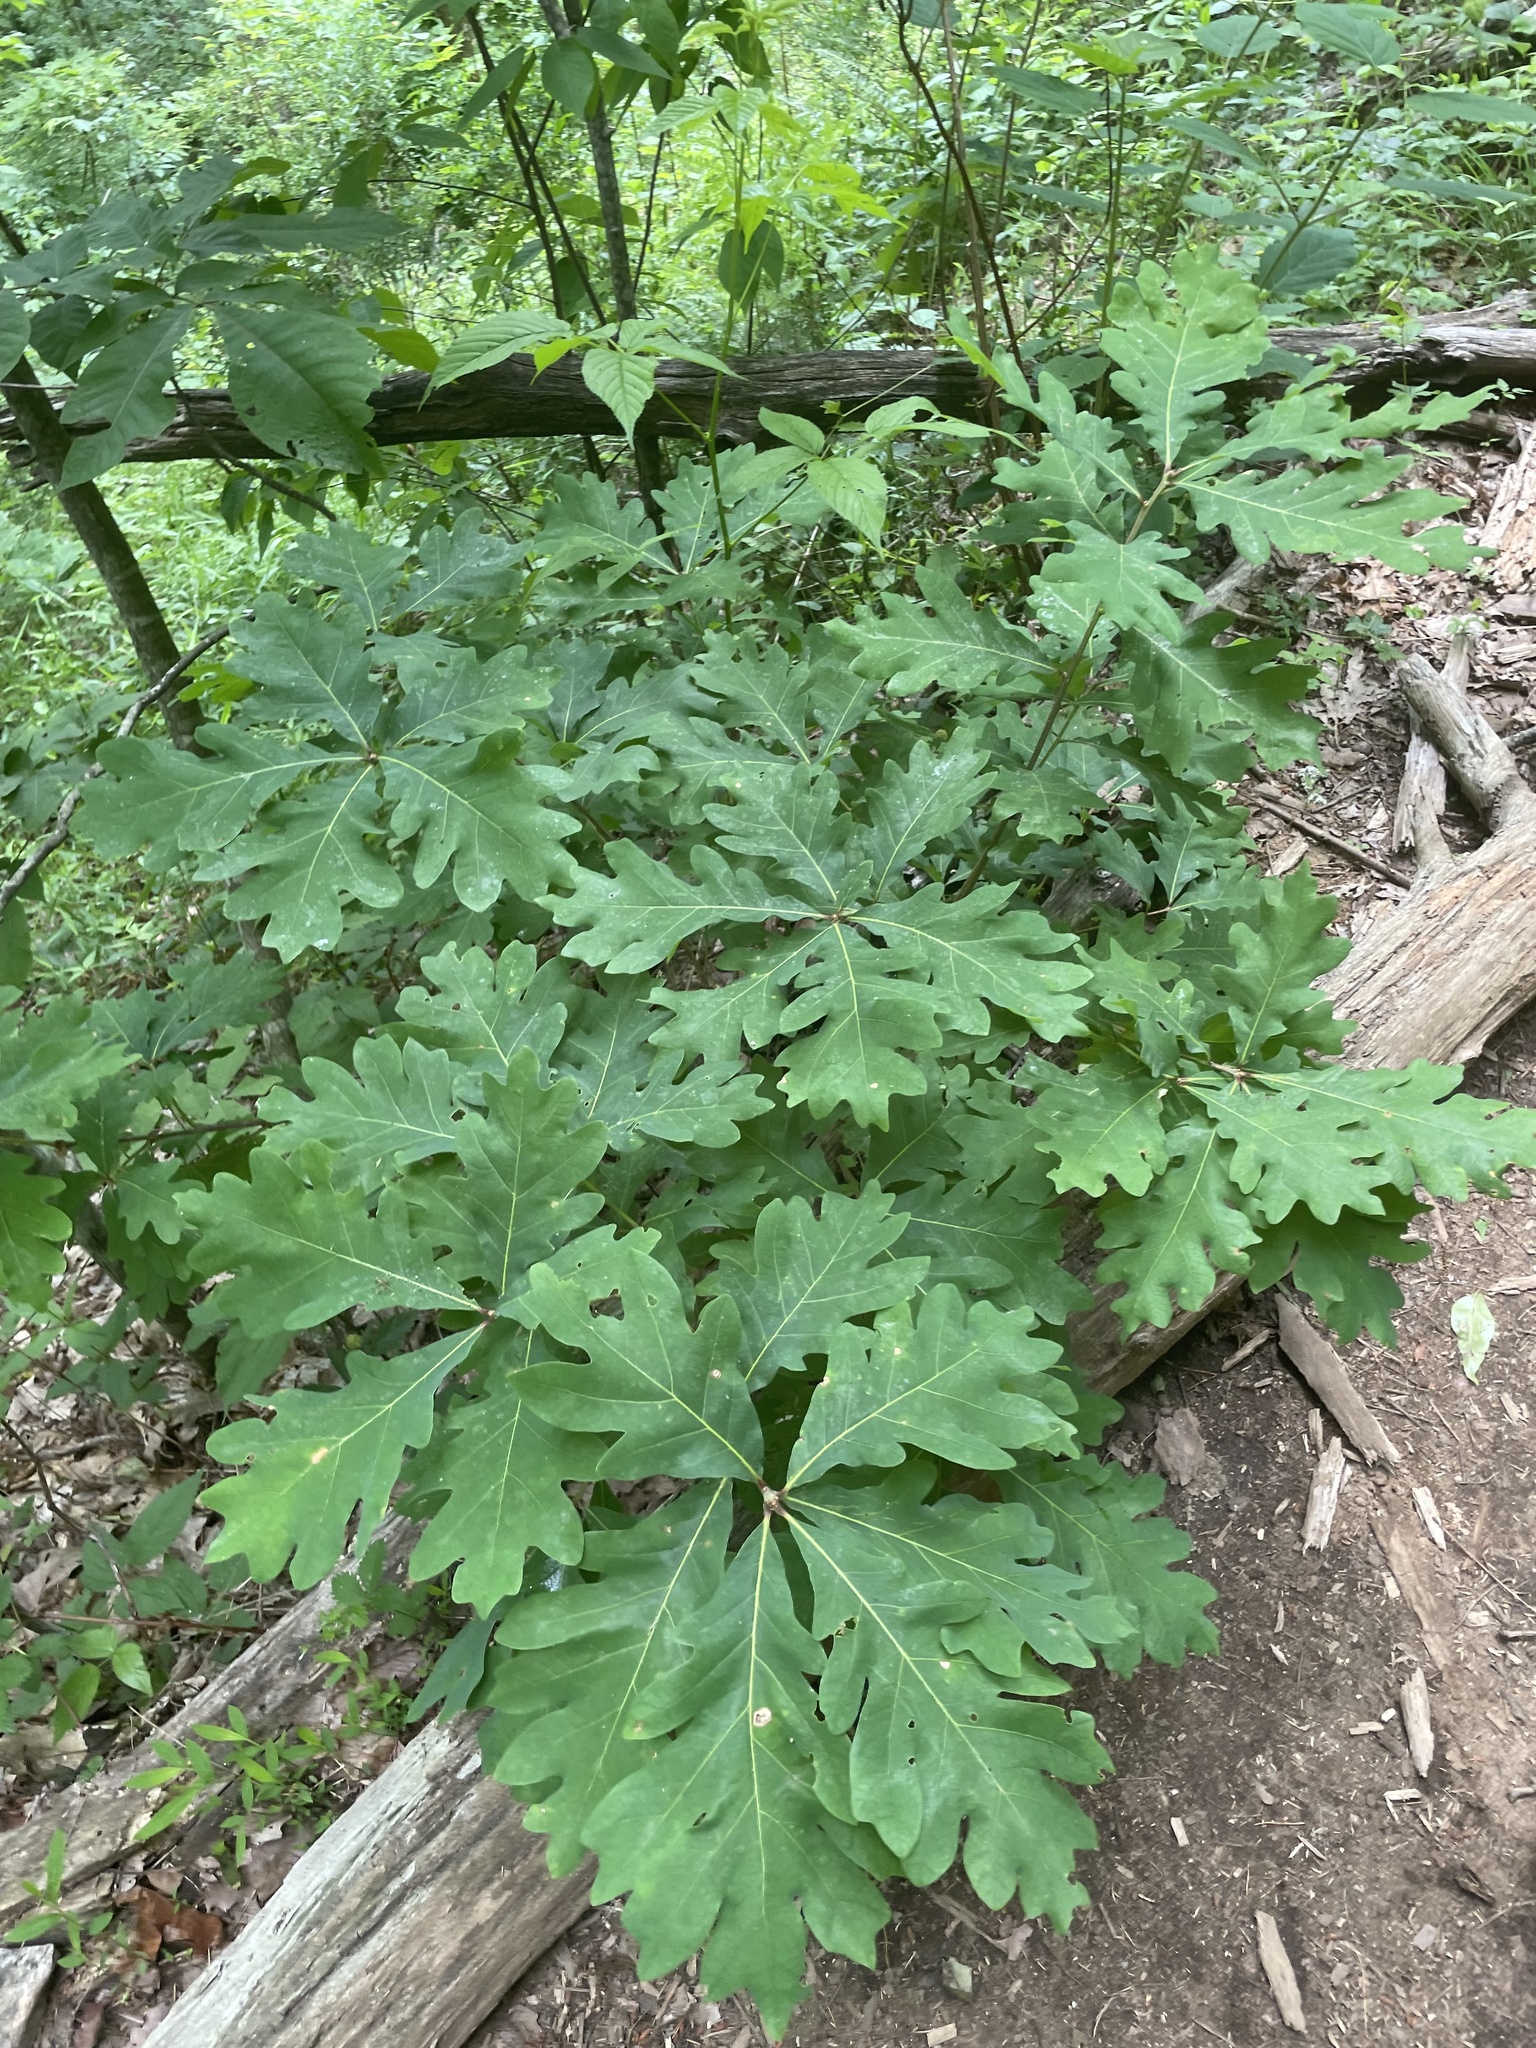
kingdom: Plantae
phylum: Tracheophyta
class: Magnoliopsida
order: Fagales
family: Fagaceae
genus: Quercus
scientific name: Quercus alba
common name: White oak
